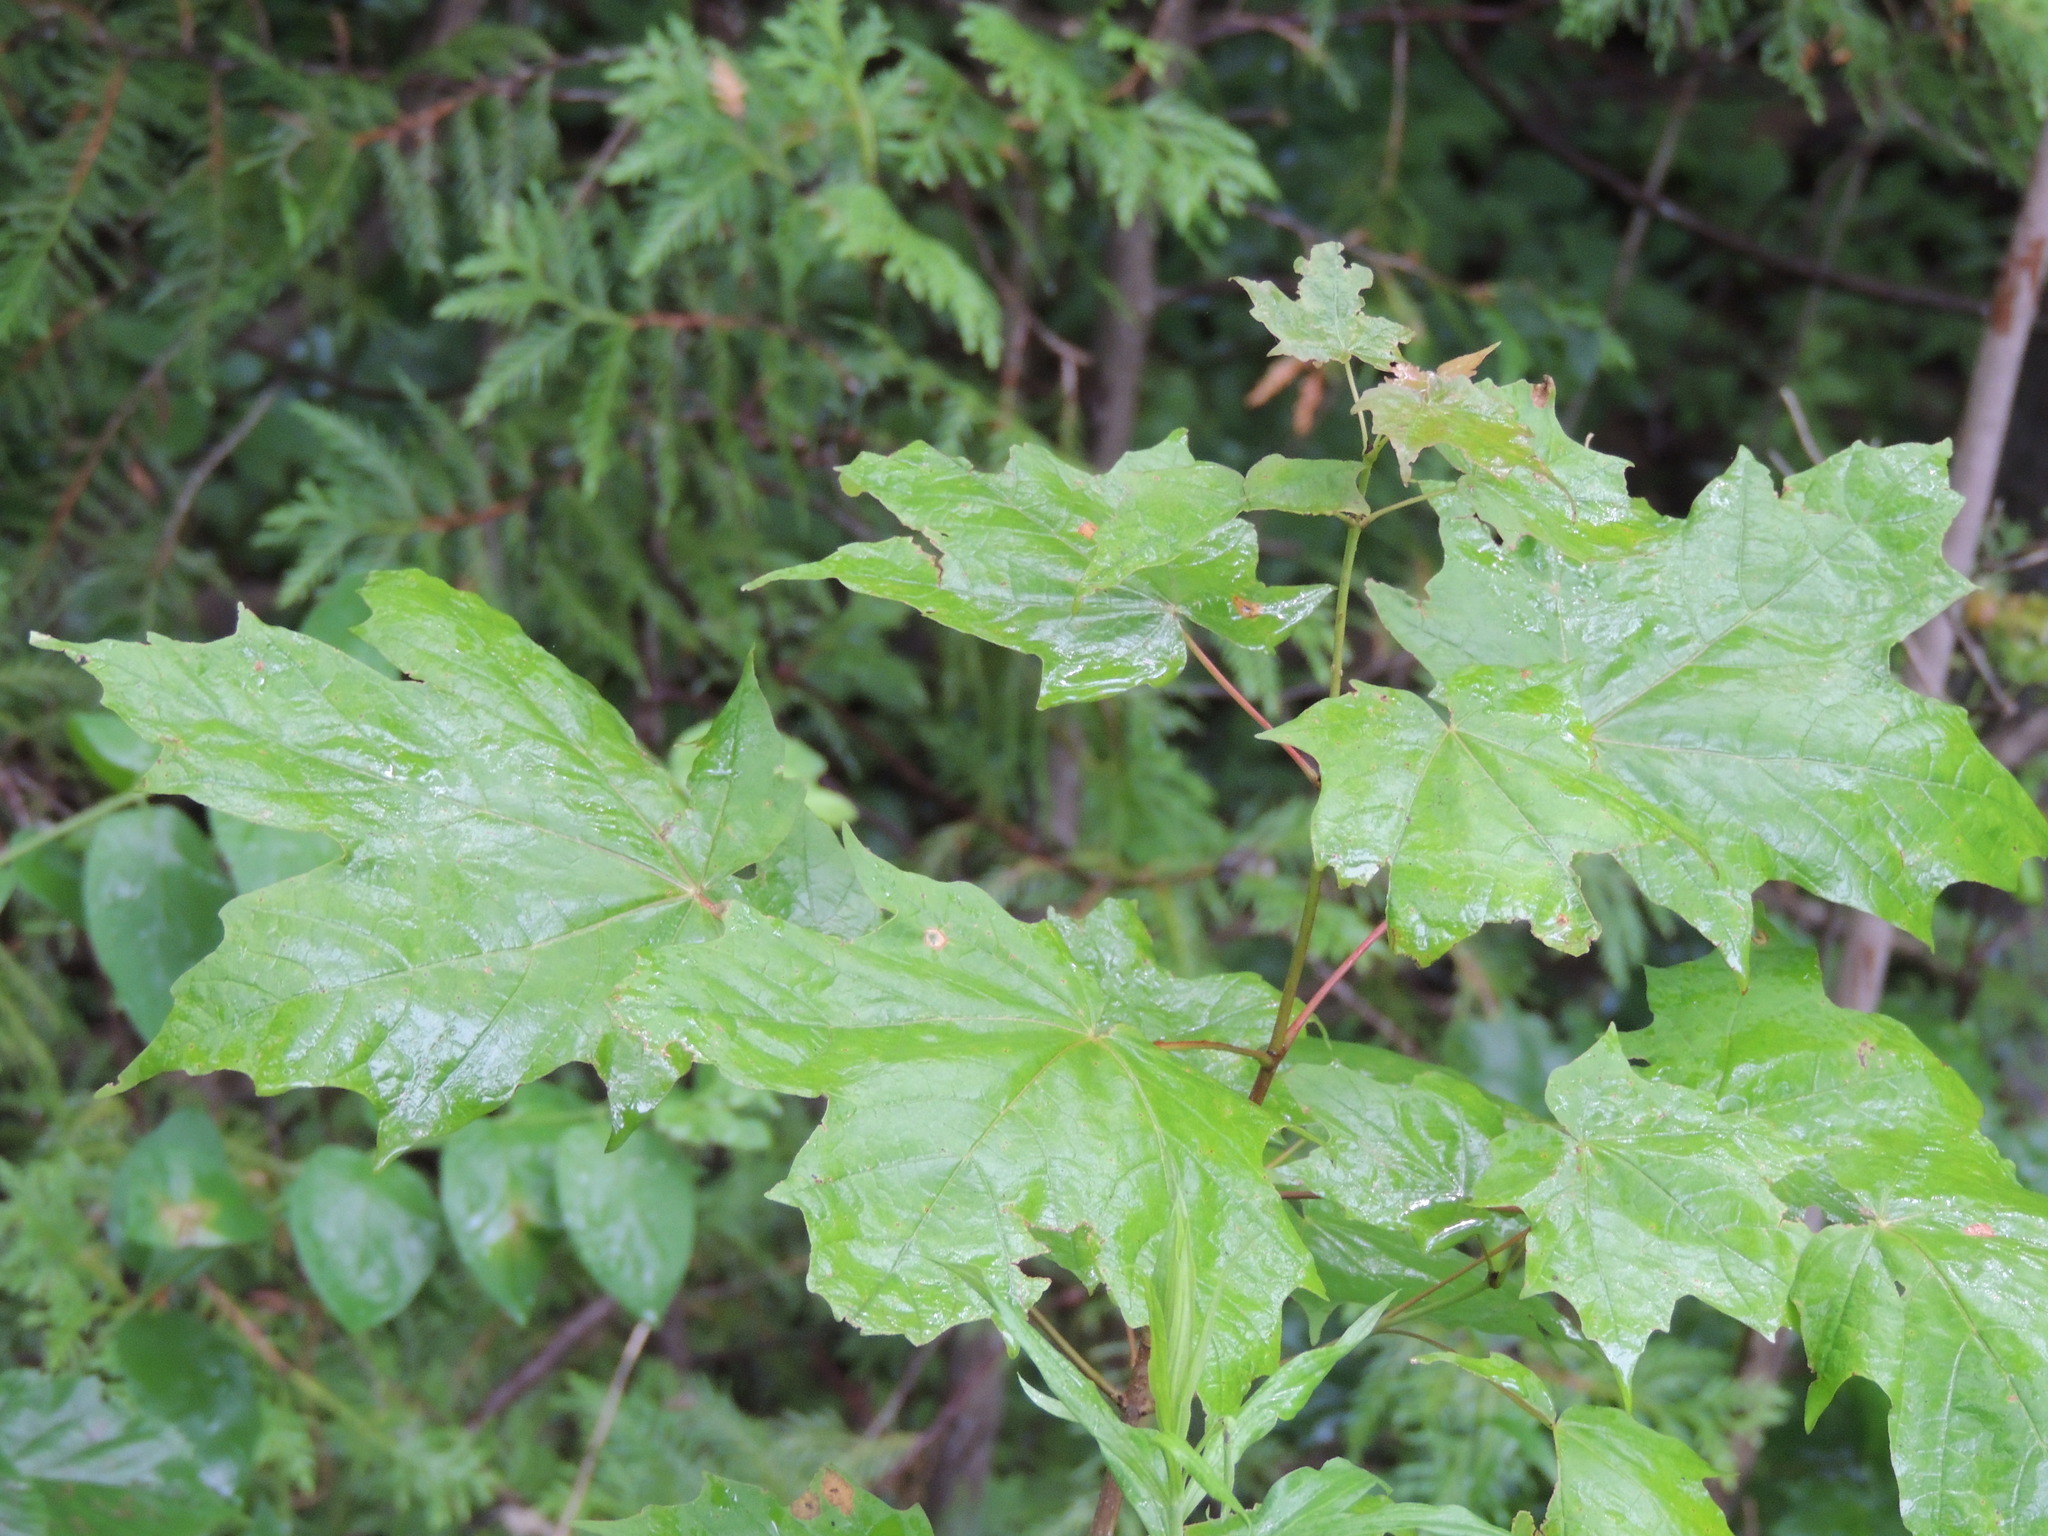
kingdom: Plantae
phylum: Tracheophyta
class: Magnoliopsida
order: Sapindales
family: Sapindaceae
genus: Acer
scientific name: Acer saccharum
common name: Sugar maple
